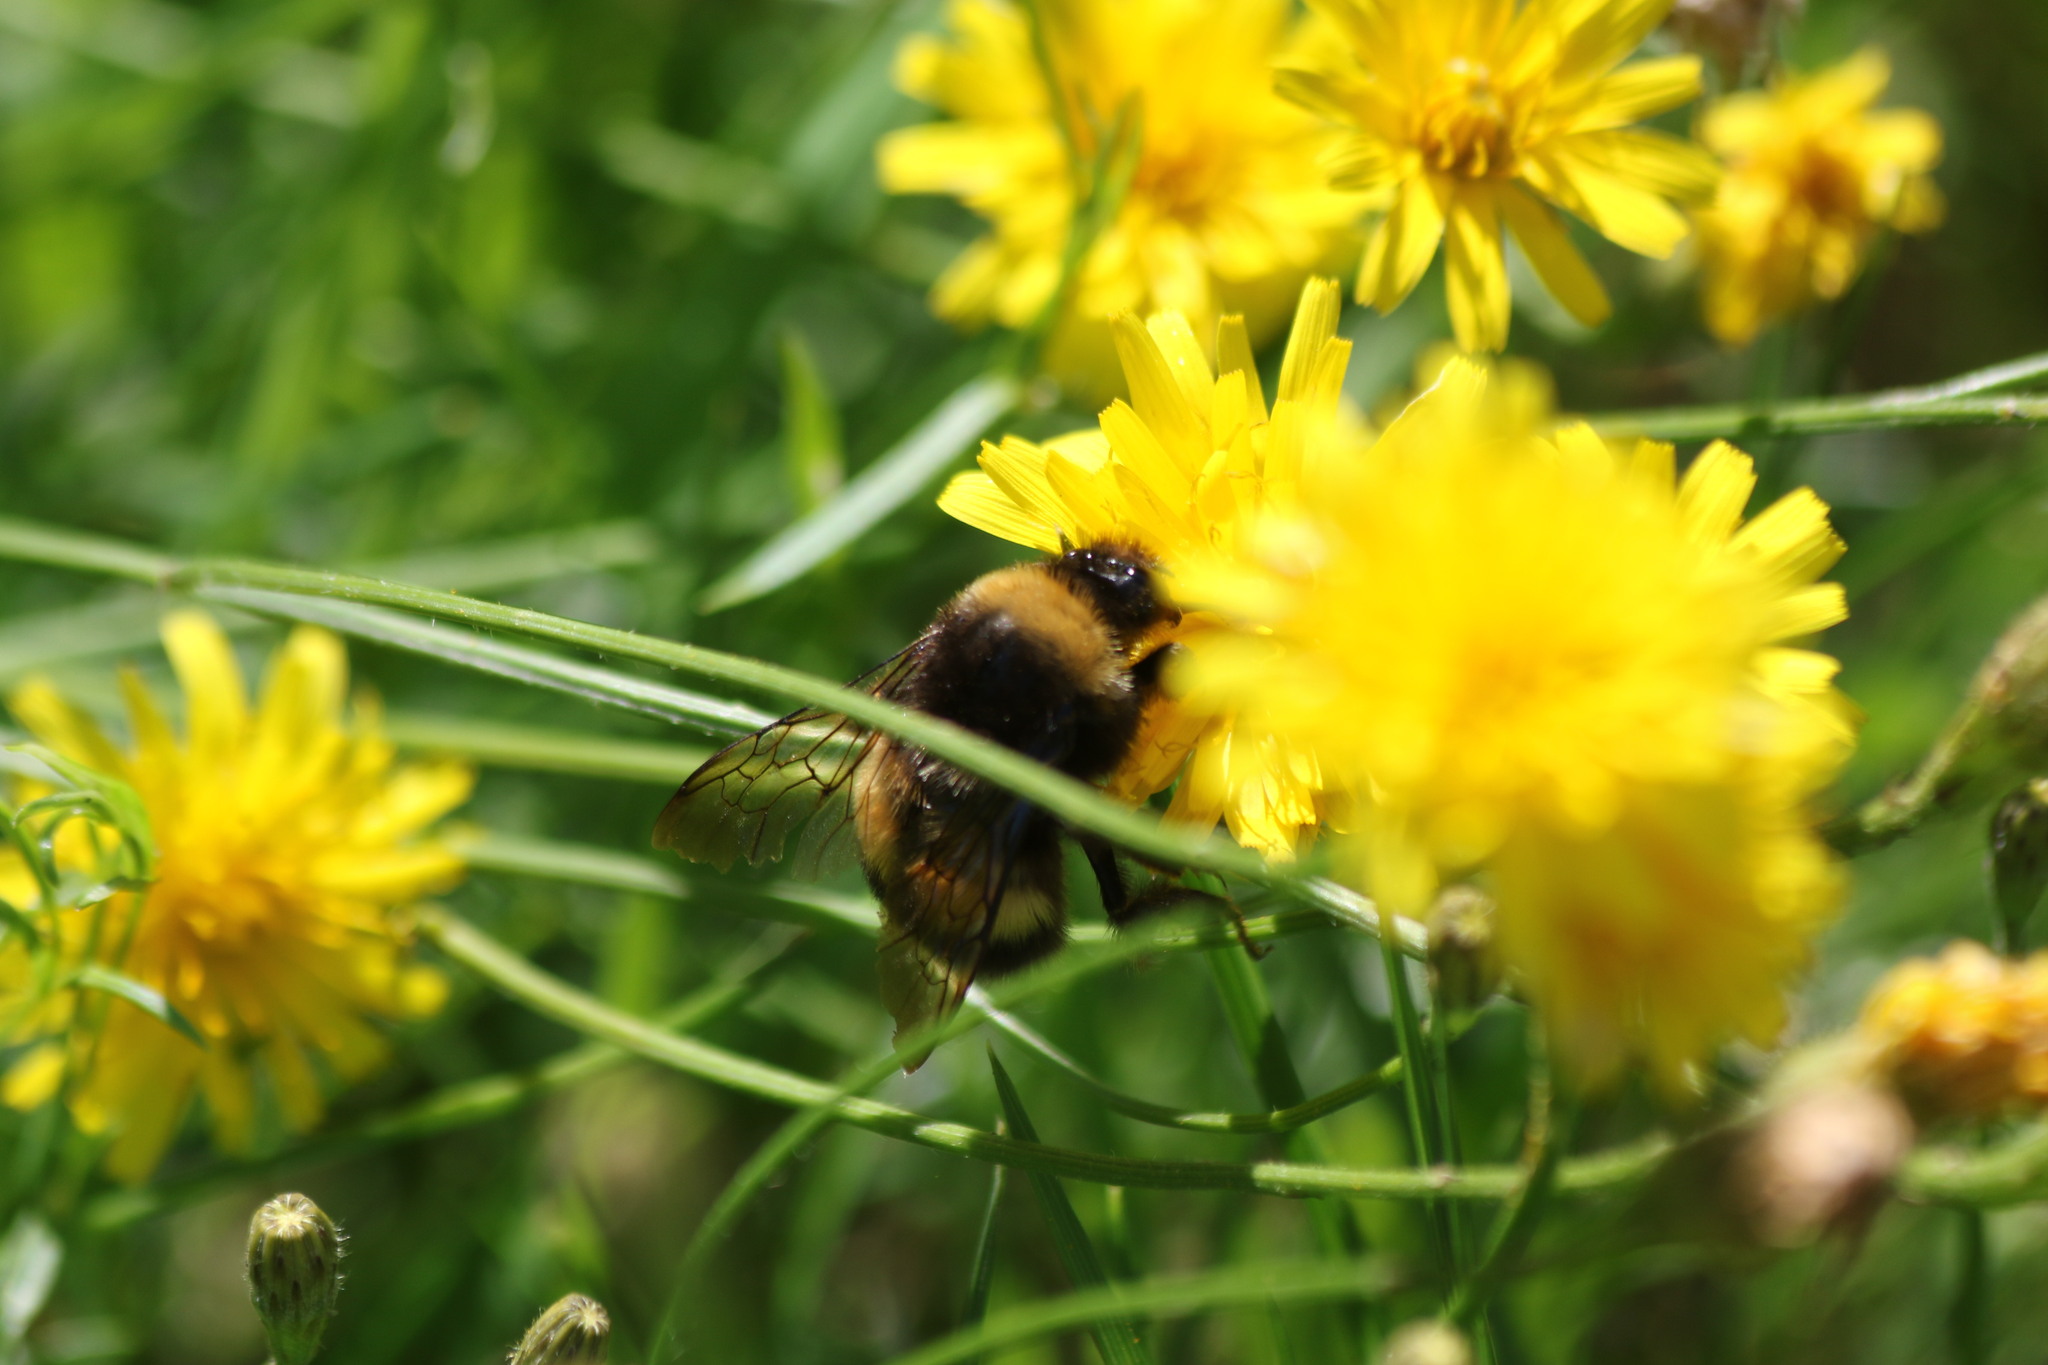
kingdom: Animalia
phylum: Arthropoda
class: Insecta
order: Hymenoptera
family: Apidae
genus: Bombus
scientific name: Bombus sporadicus
